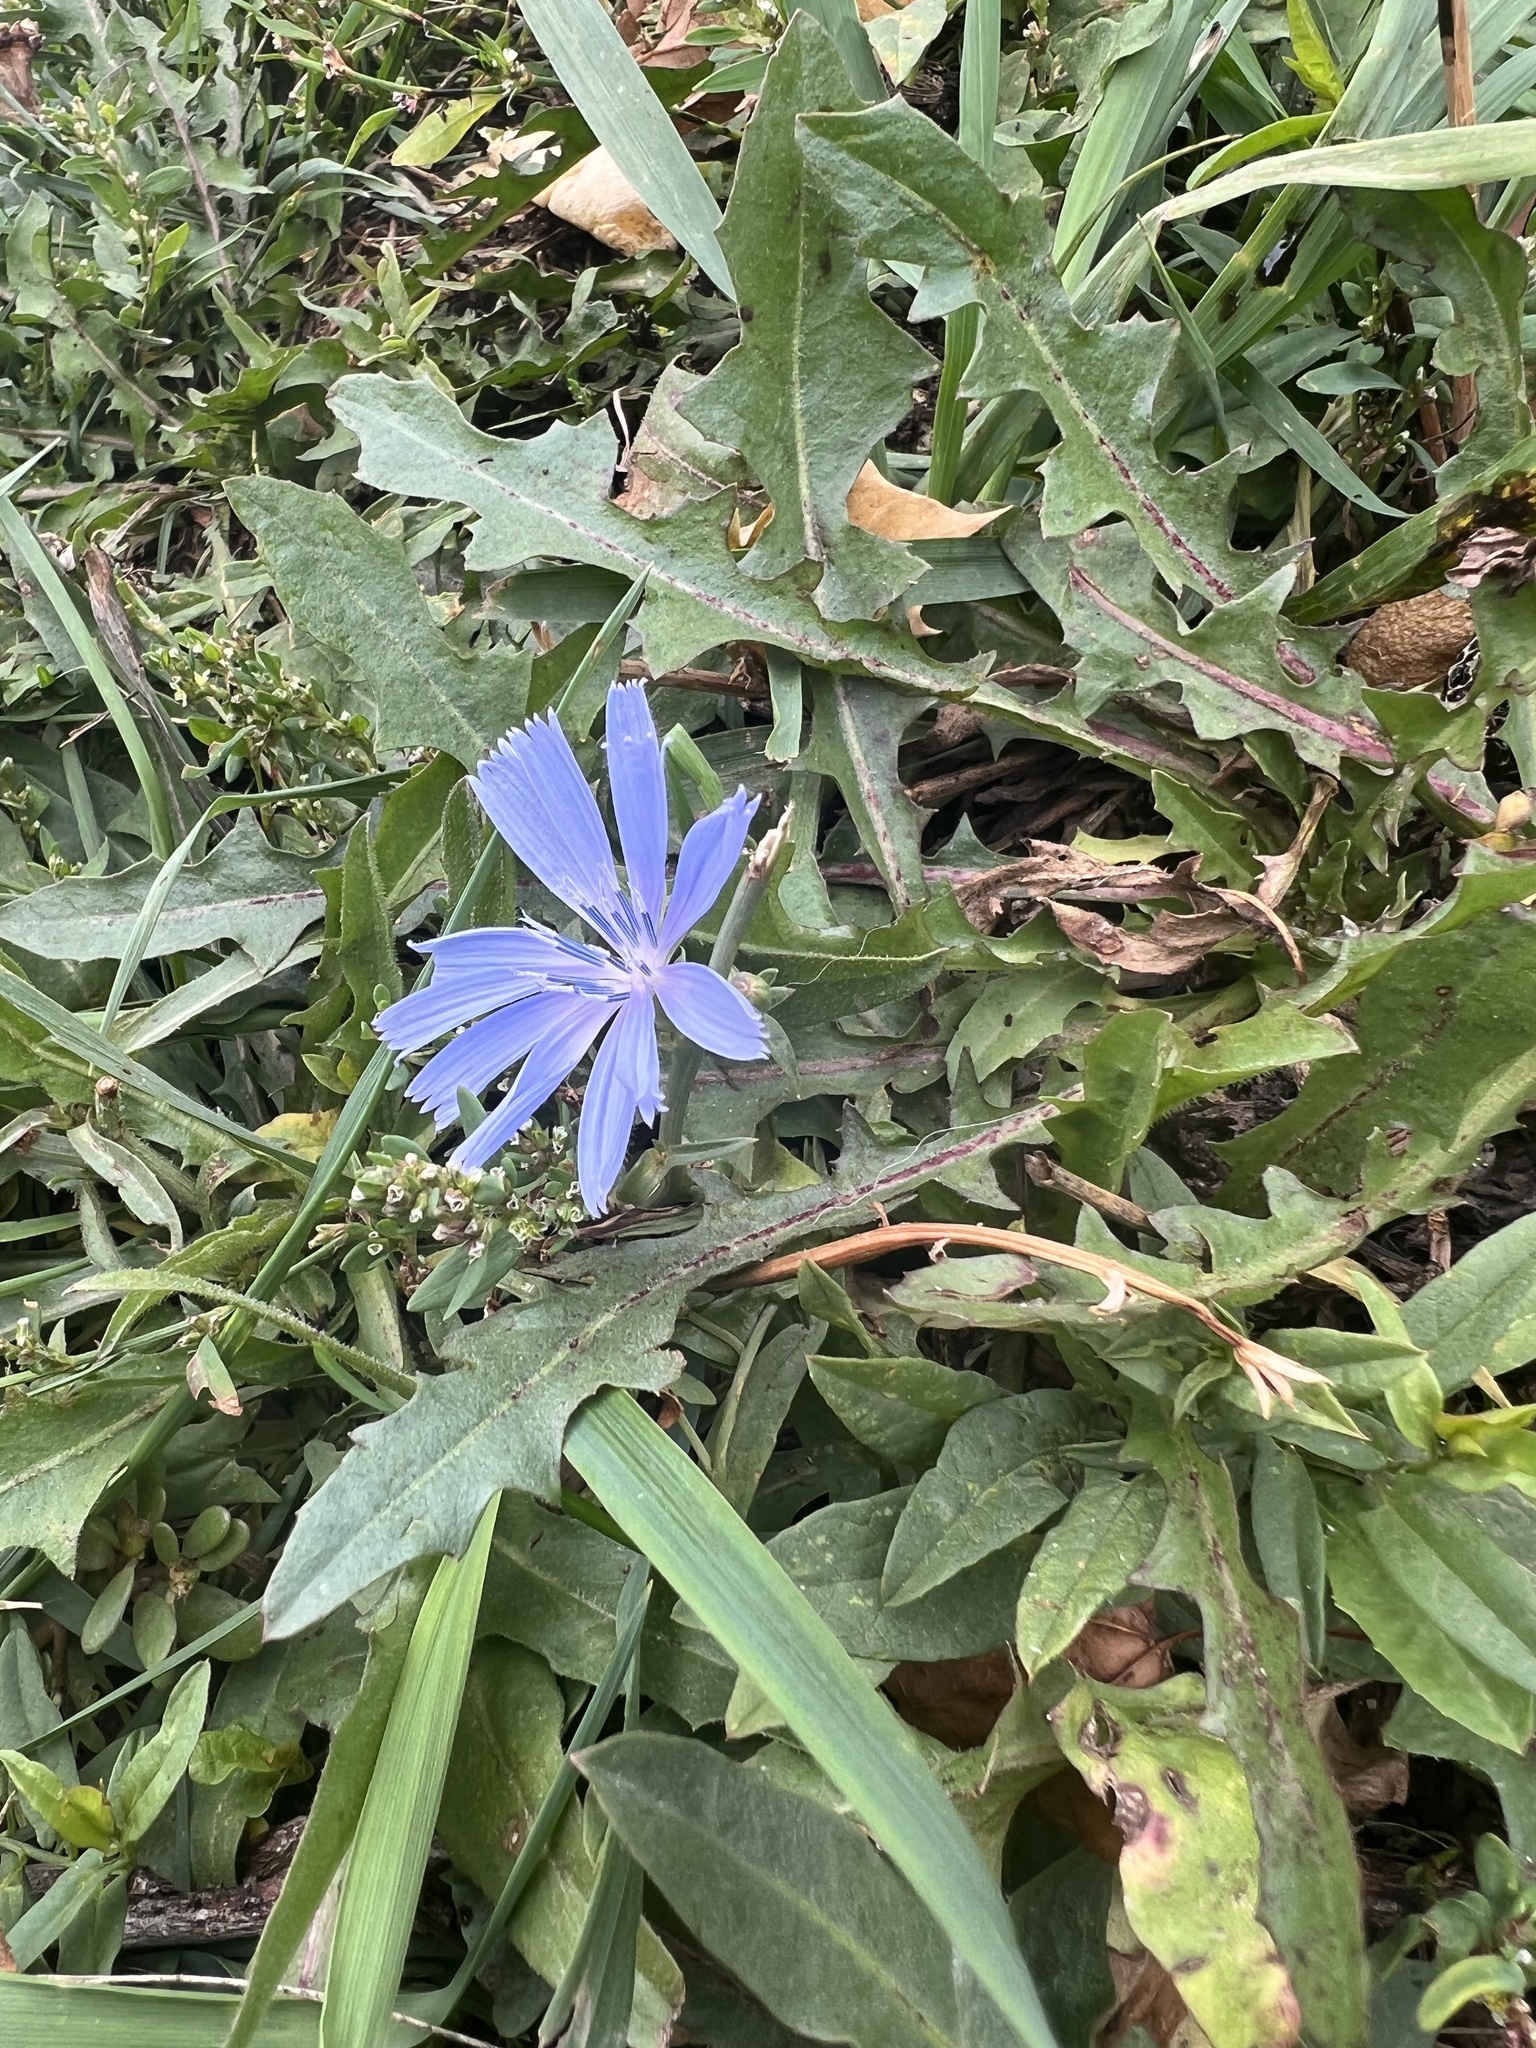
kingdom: Plantae
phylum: Tracheophyta
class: Magnoliopsida
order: Asterales
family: Asteraceae
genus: Cichorium
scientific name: Cichorium intybus
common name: Chicory
